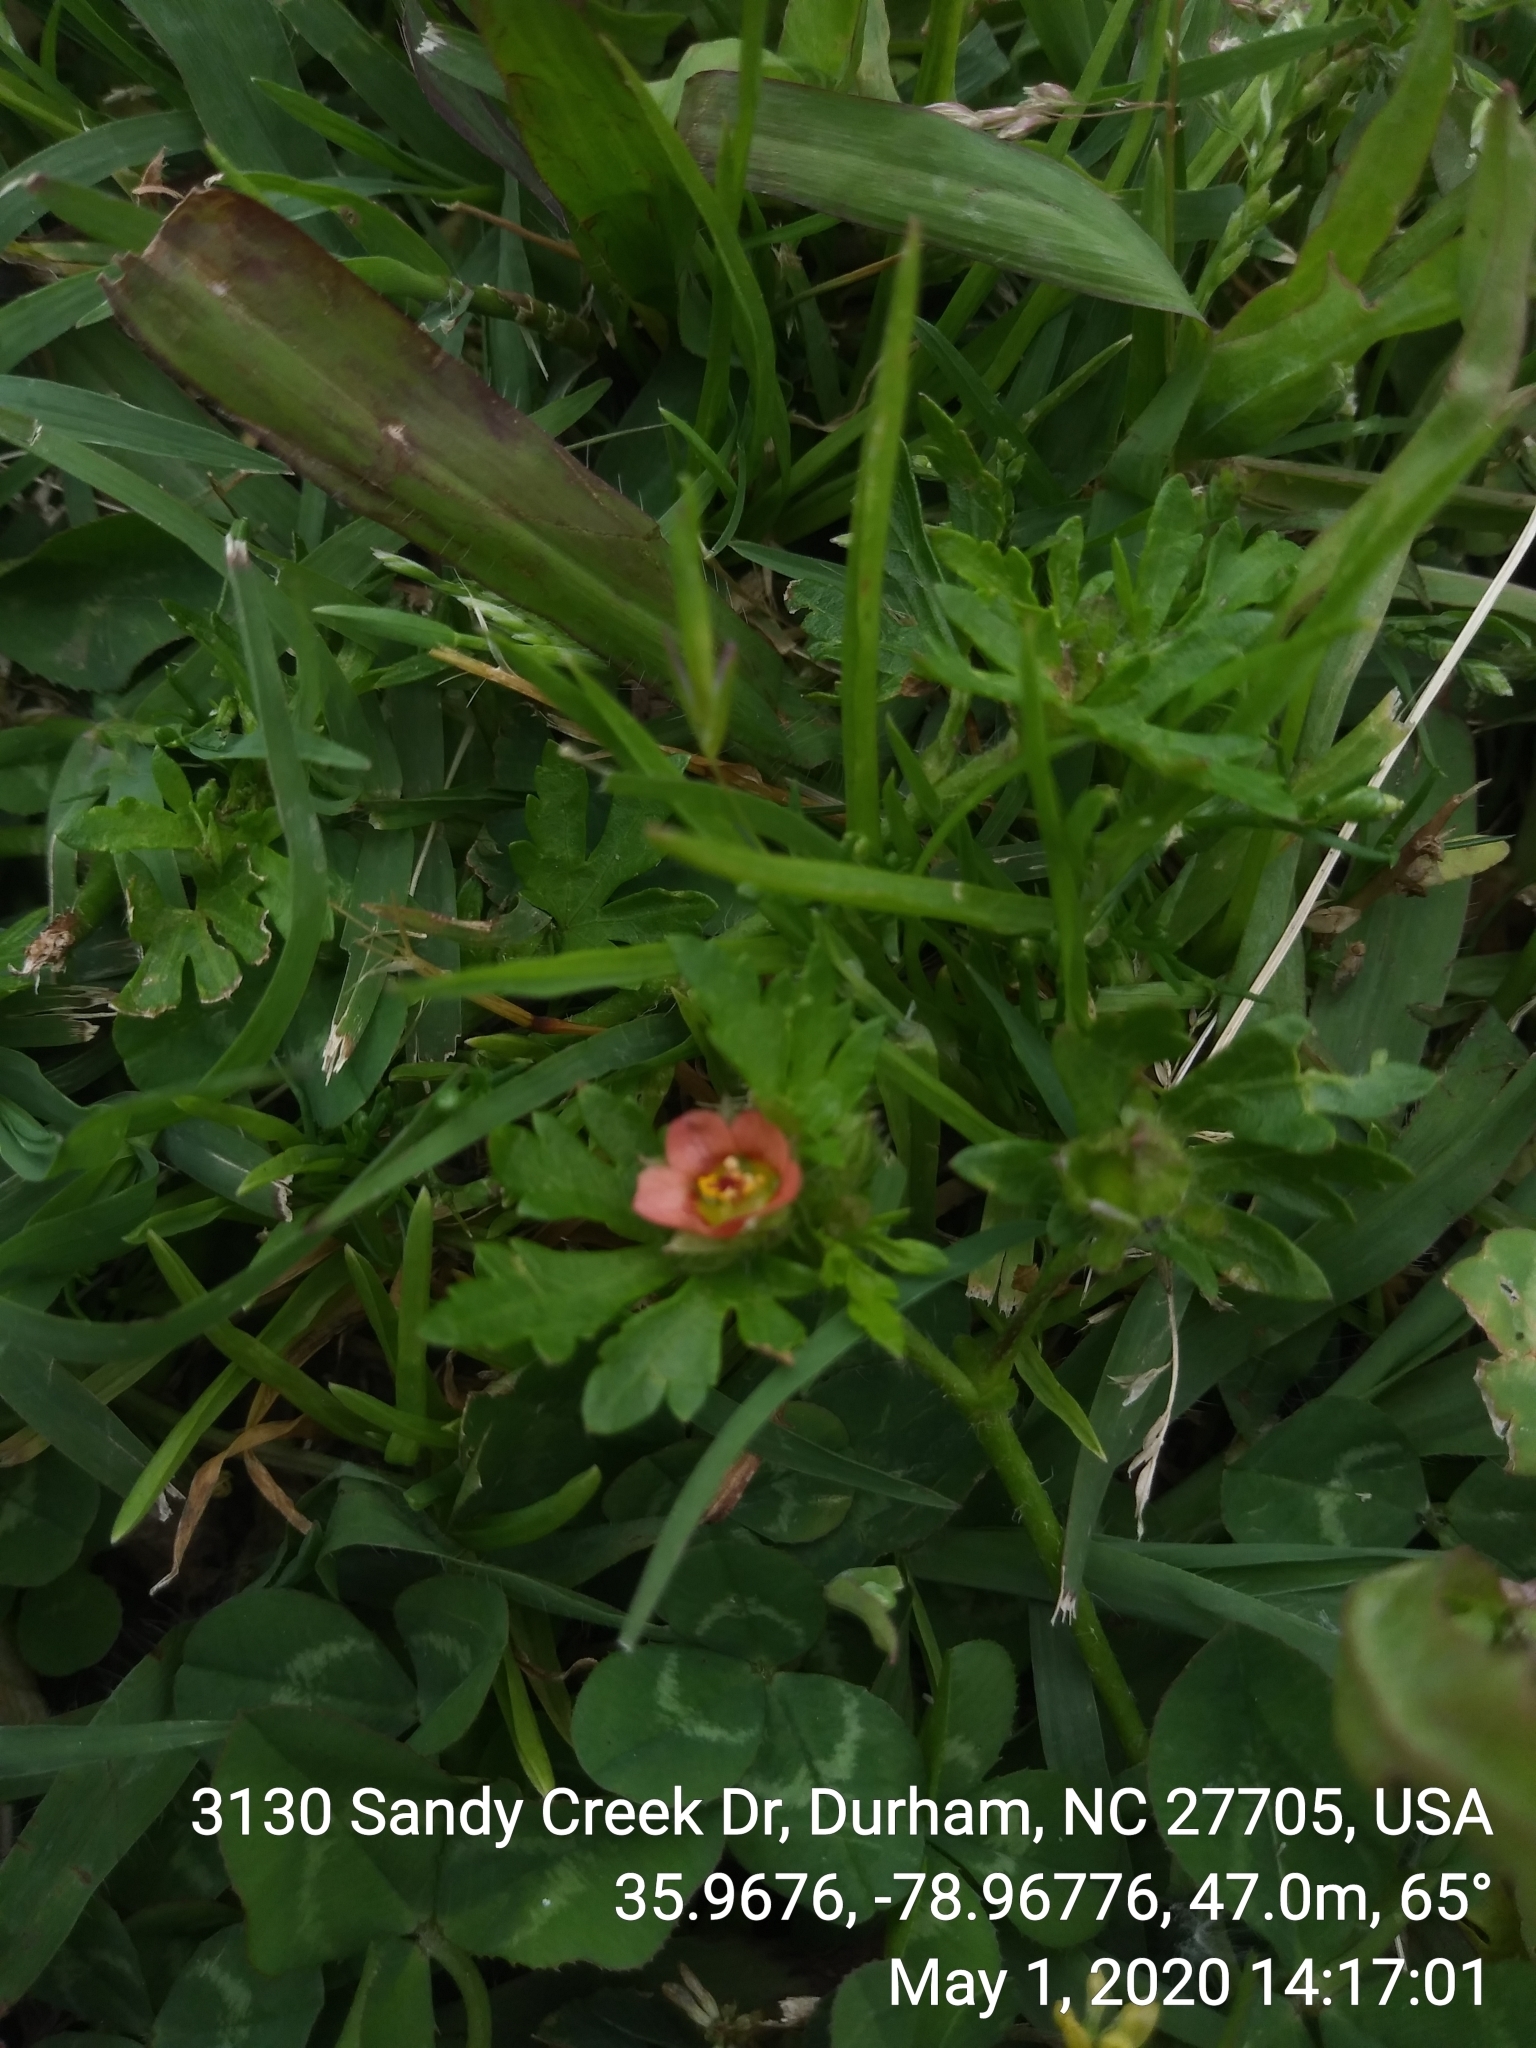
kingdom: Plantae
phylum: Tracheophyta
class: Magnoliopsida
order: Malvales
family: Malvaceae
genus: Modiola
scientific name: Modiola caroliniana
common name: Carolina bristlemallow
